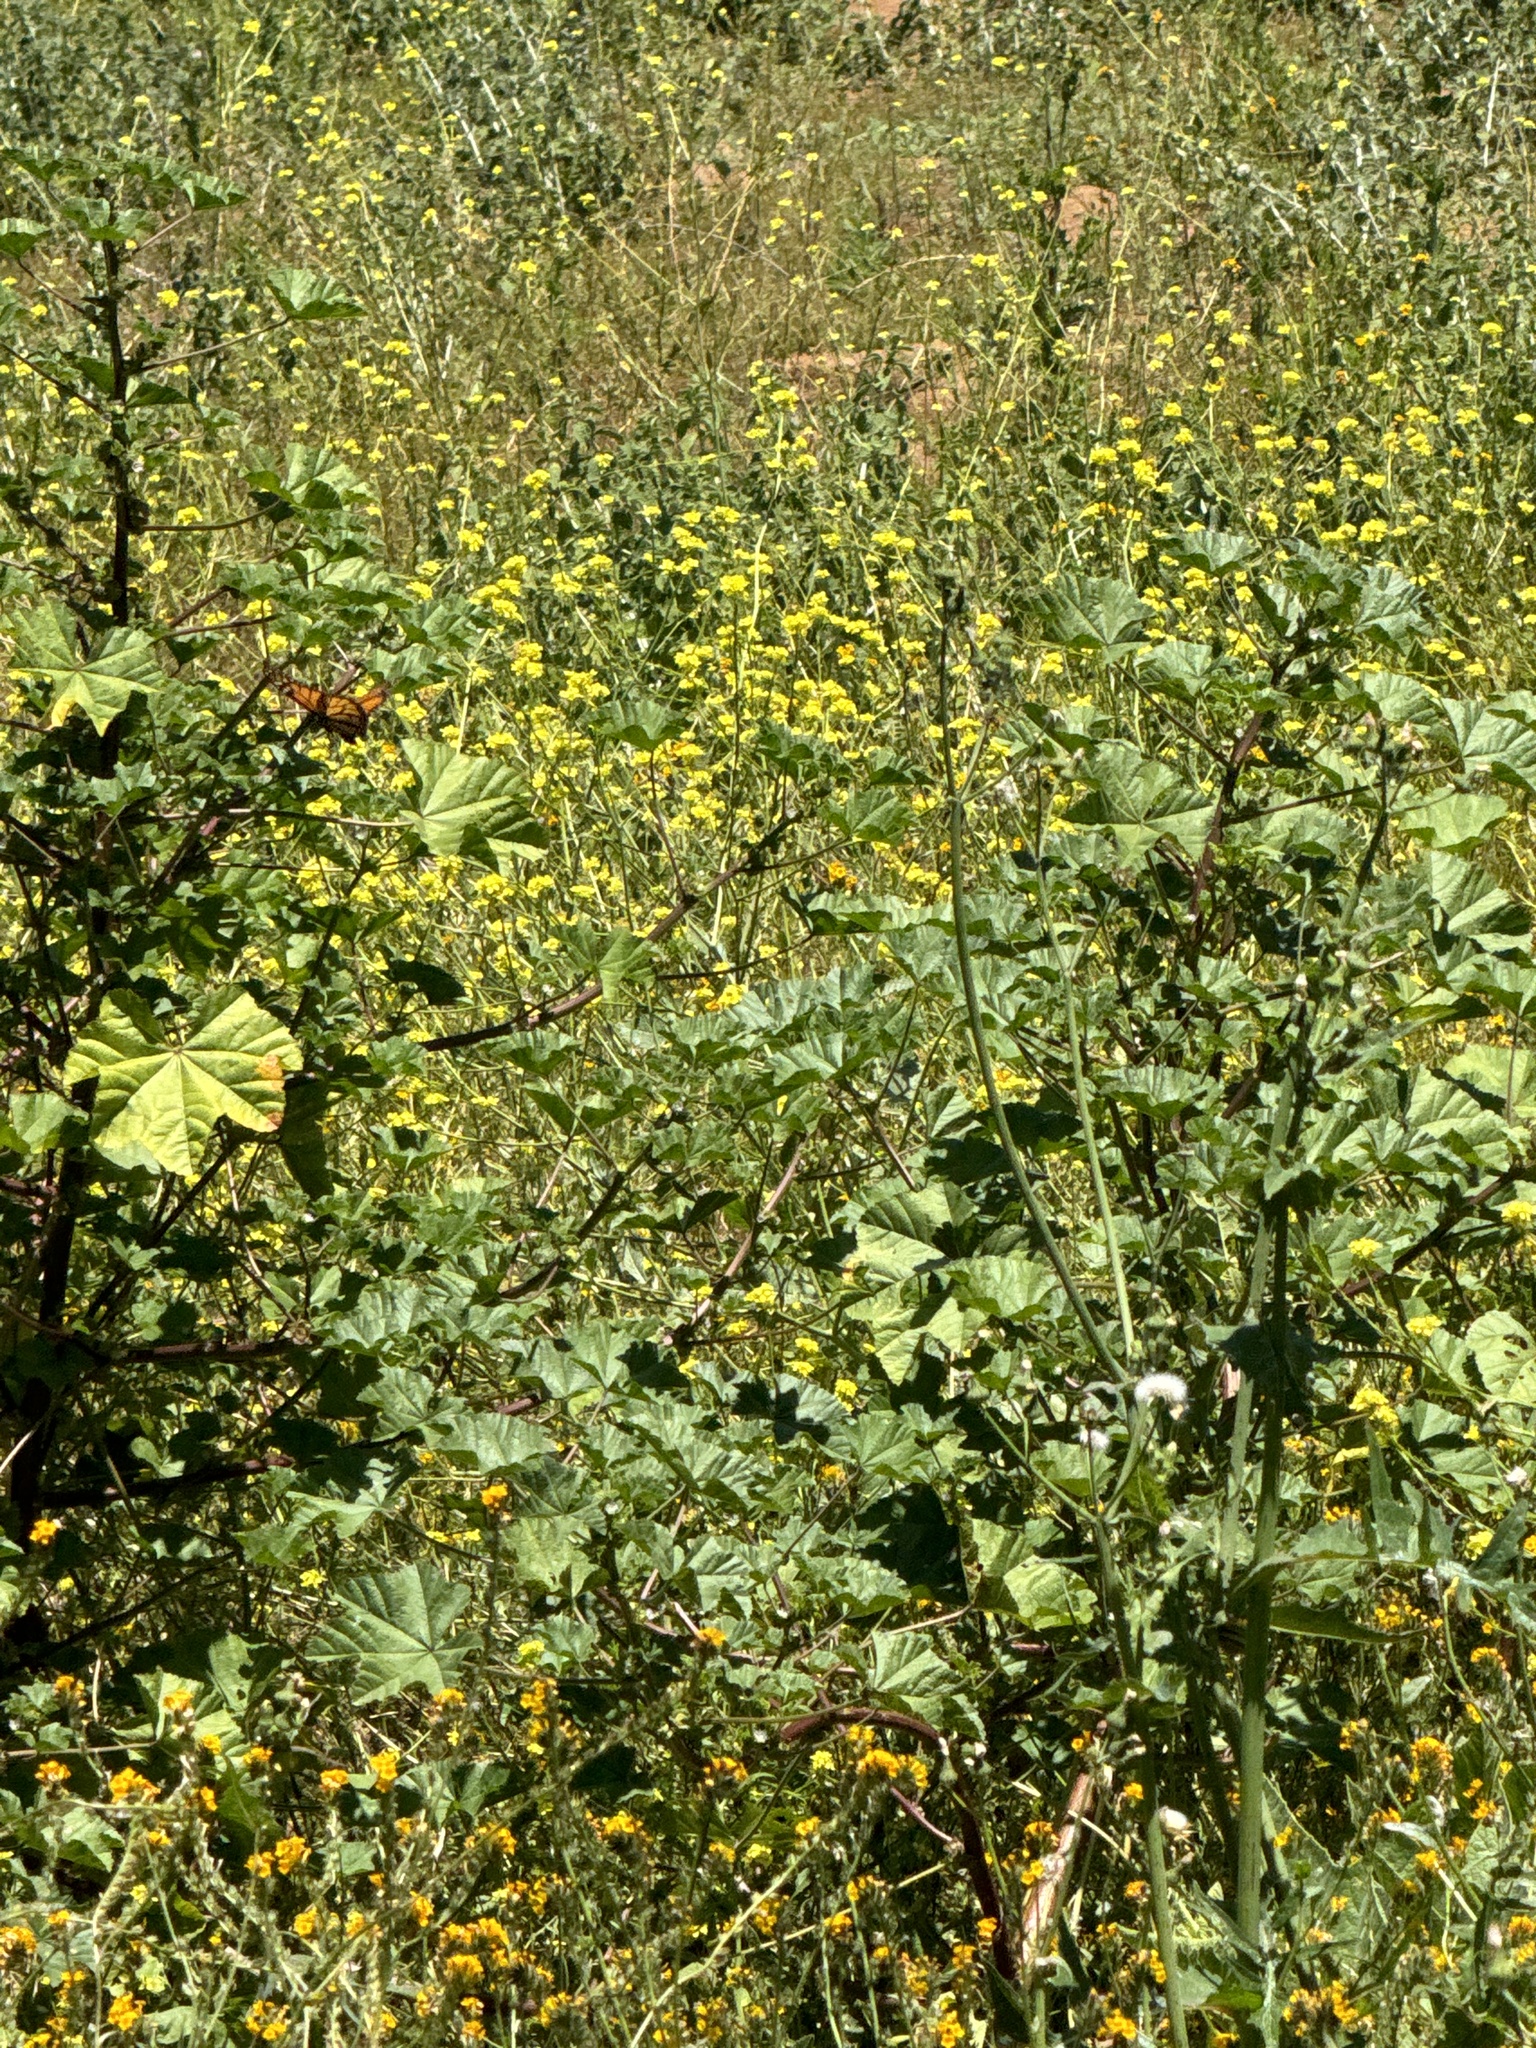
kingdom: Animalia
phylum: Arthropoda
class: Insecta
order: Lepidoptera
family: Nymphalidae
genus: Danaus
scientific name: Danaus plexippus
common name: Monarch
